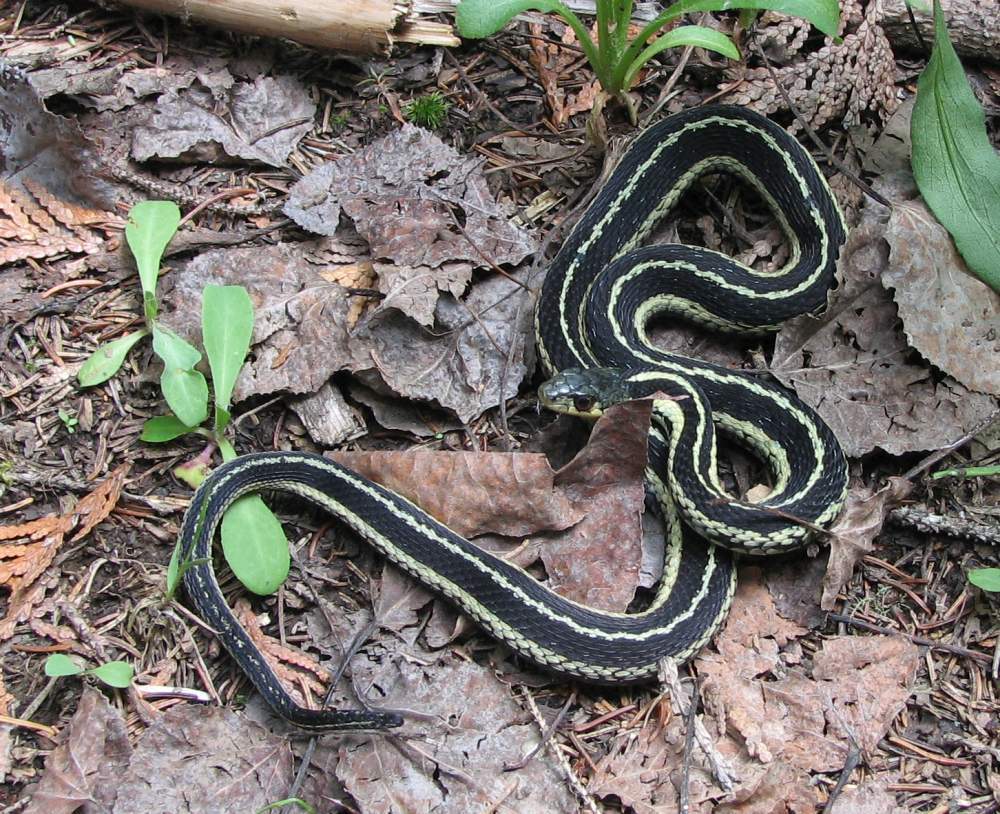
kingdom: Animalia
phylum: Chordata
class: Squamata
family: Colubridae
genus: Thamnophis
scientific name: Thamnophis sirtalis
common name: Common garter snake
